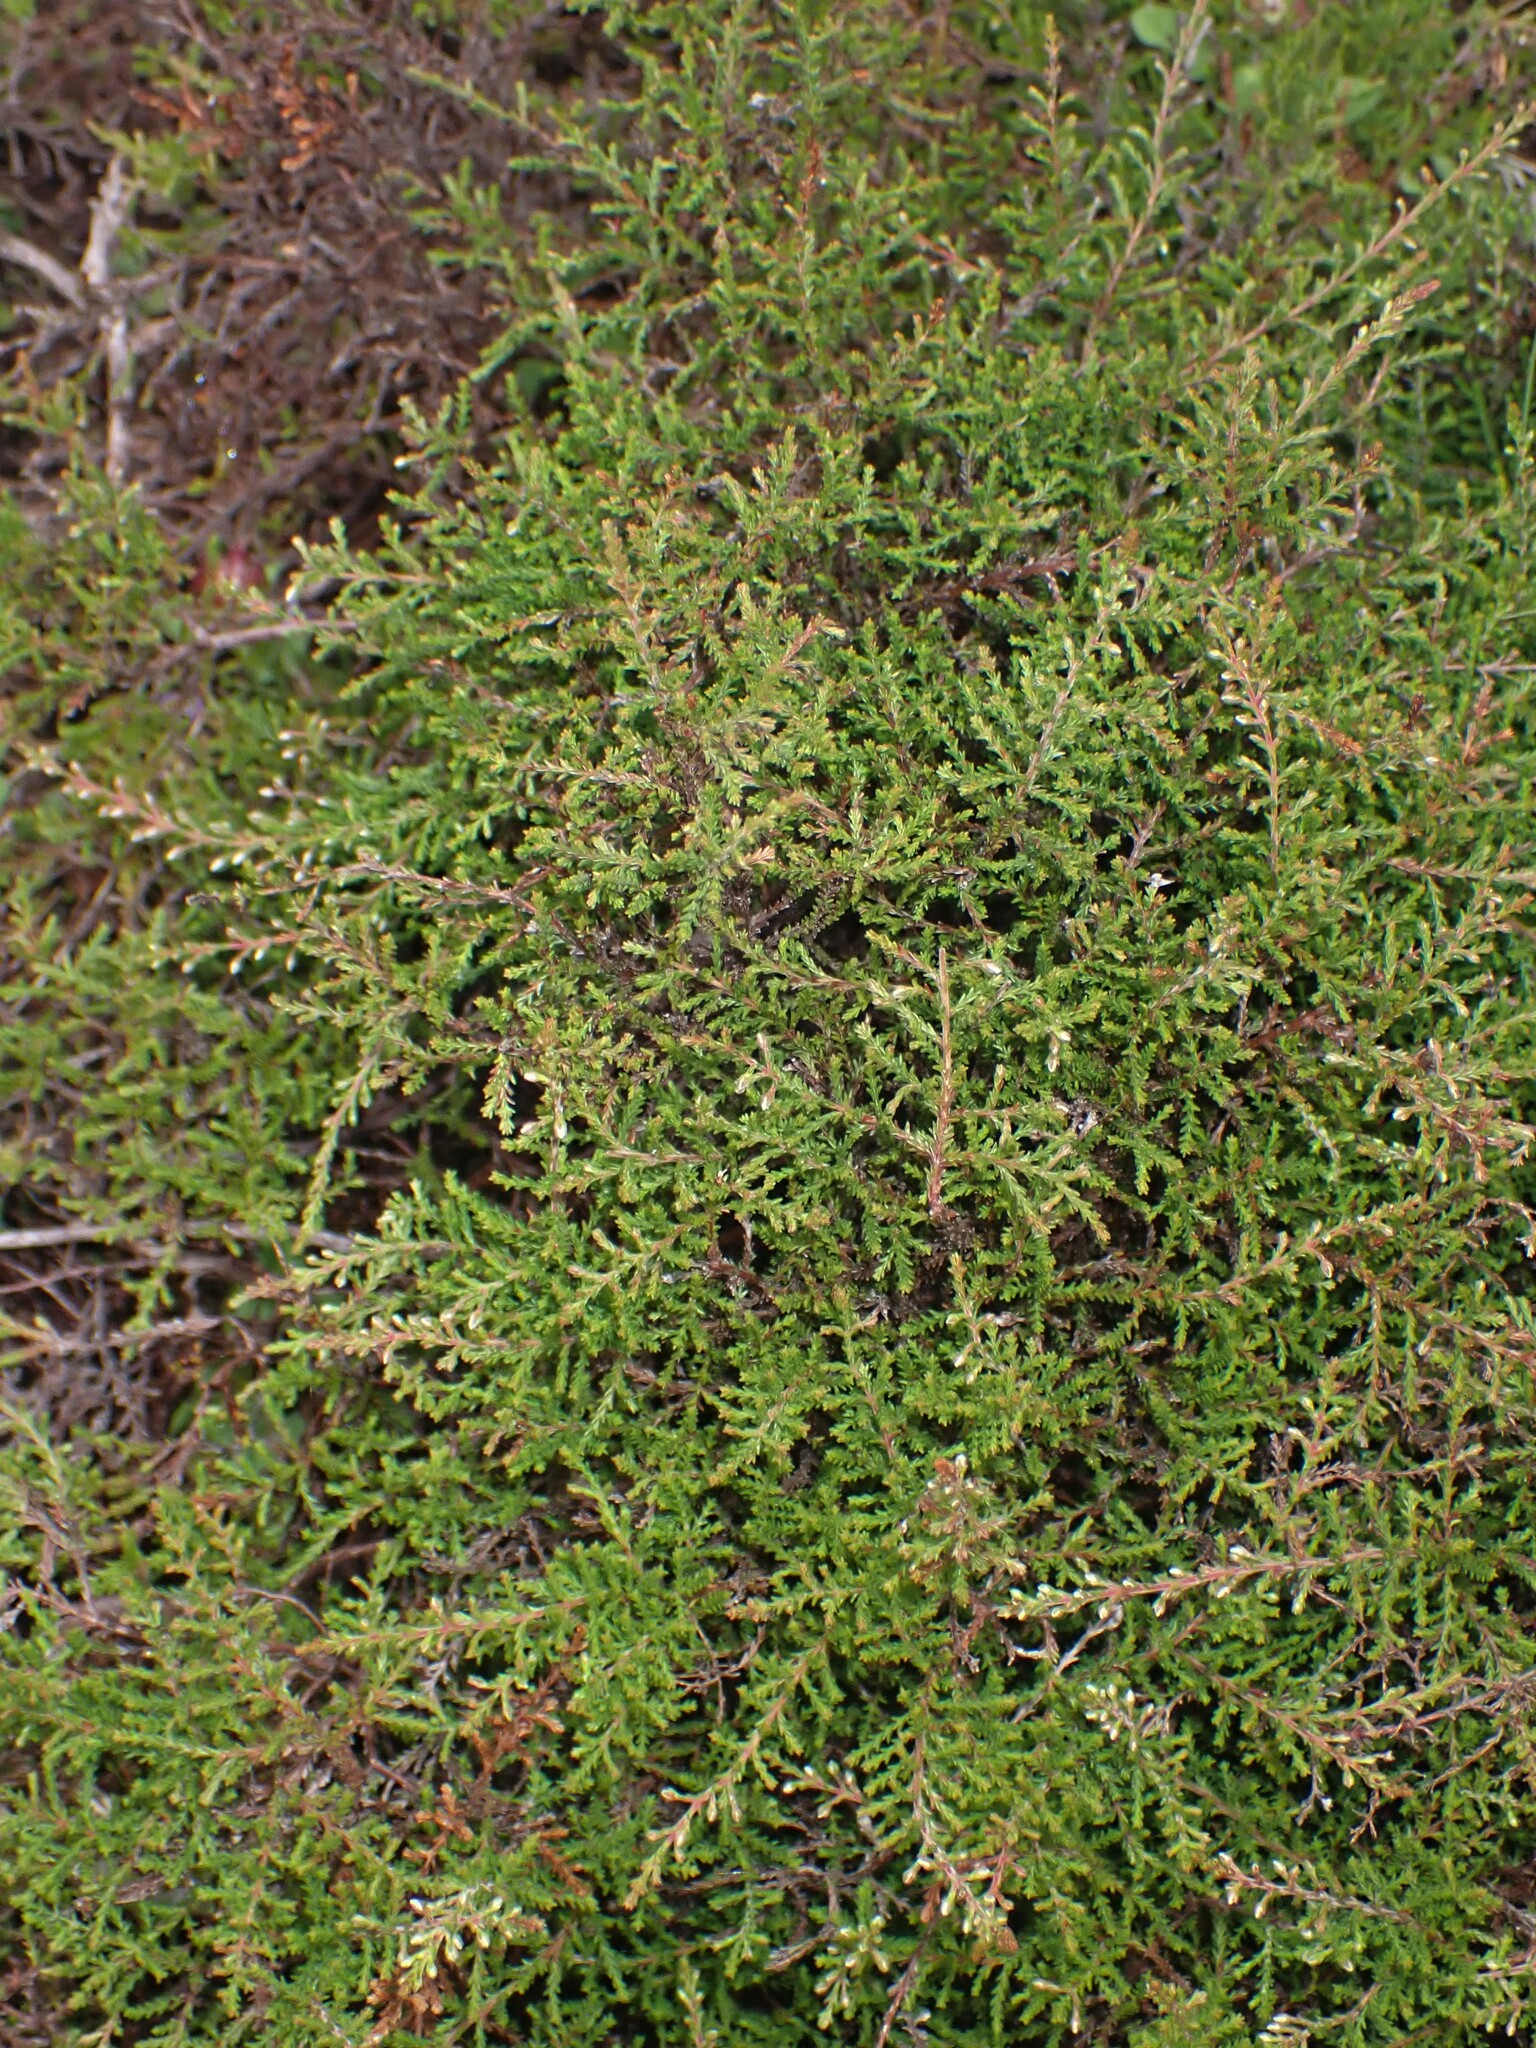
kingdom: Plantae
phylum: Tracheophyta
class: Magnoliopsida
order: Ericales
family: Ericaceae
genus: Calluna
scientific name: Calluna vulgaris
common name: Heather
